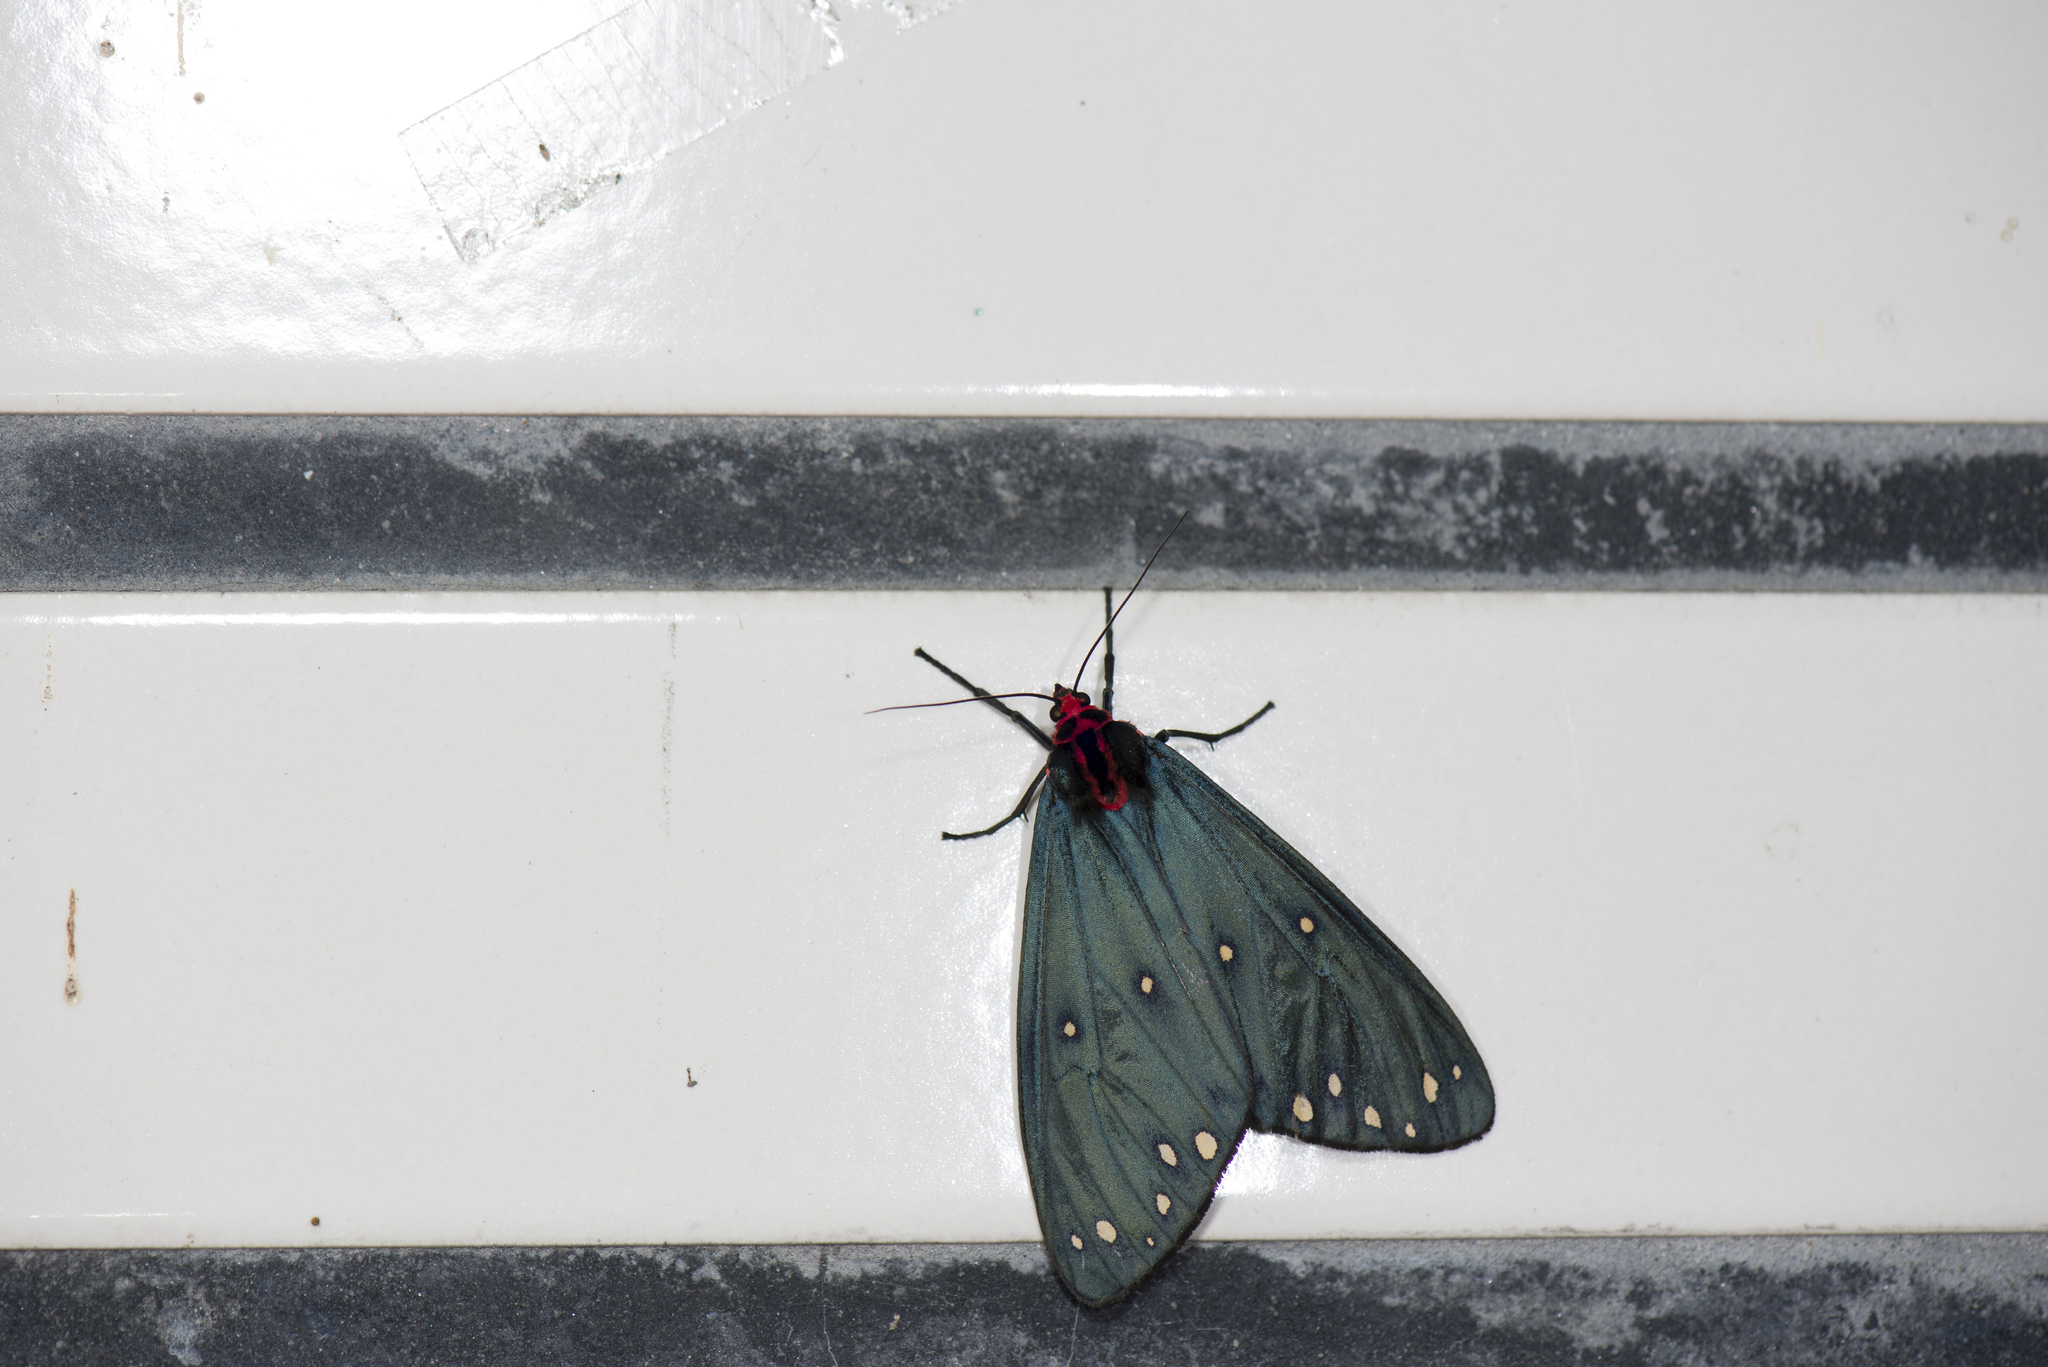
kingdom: Animalia
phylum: Arthropoda
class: Insecta
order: Lepidoptera
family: Erebidae
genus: Taicallimorpha
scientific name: Taicallimorpha albipuncta
